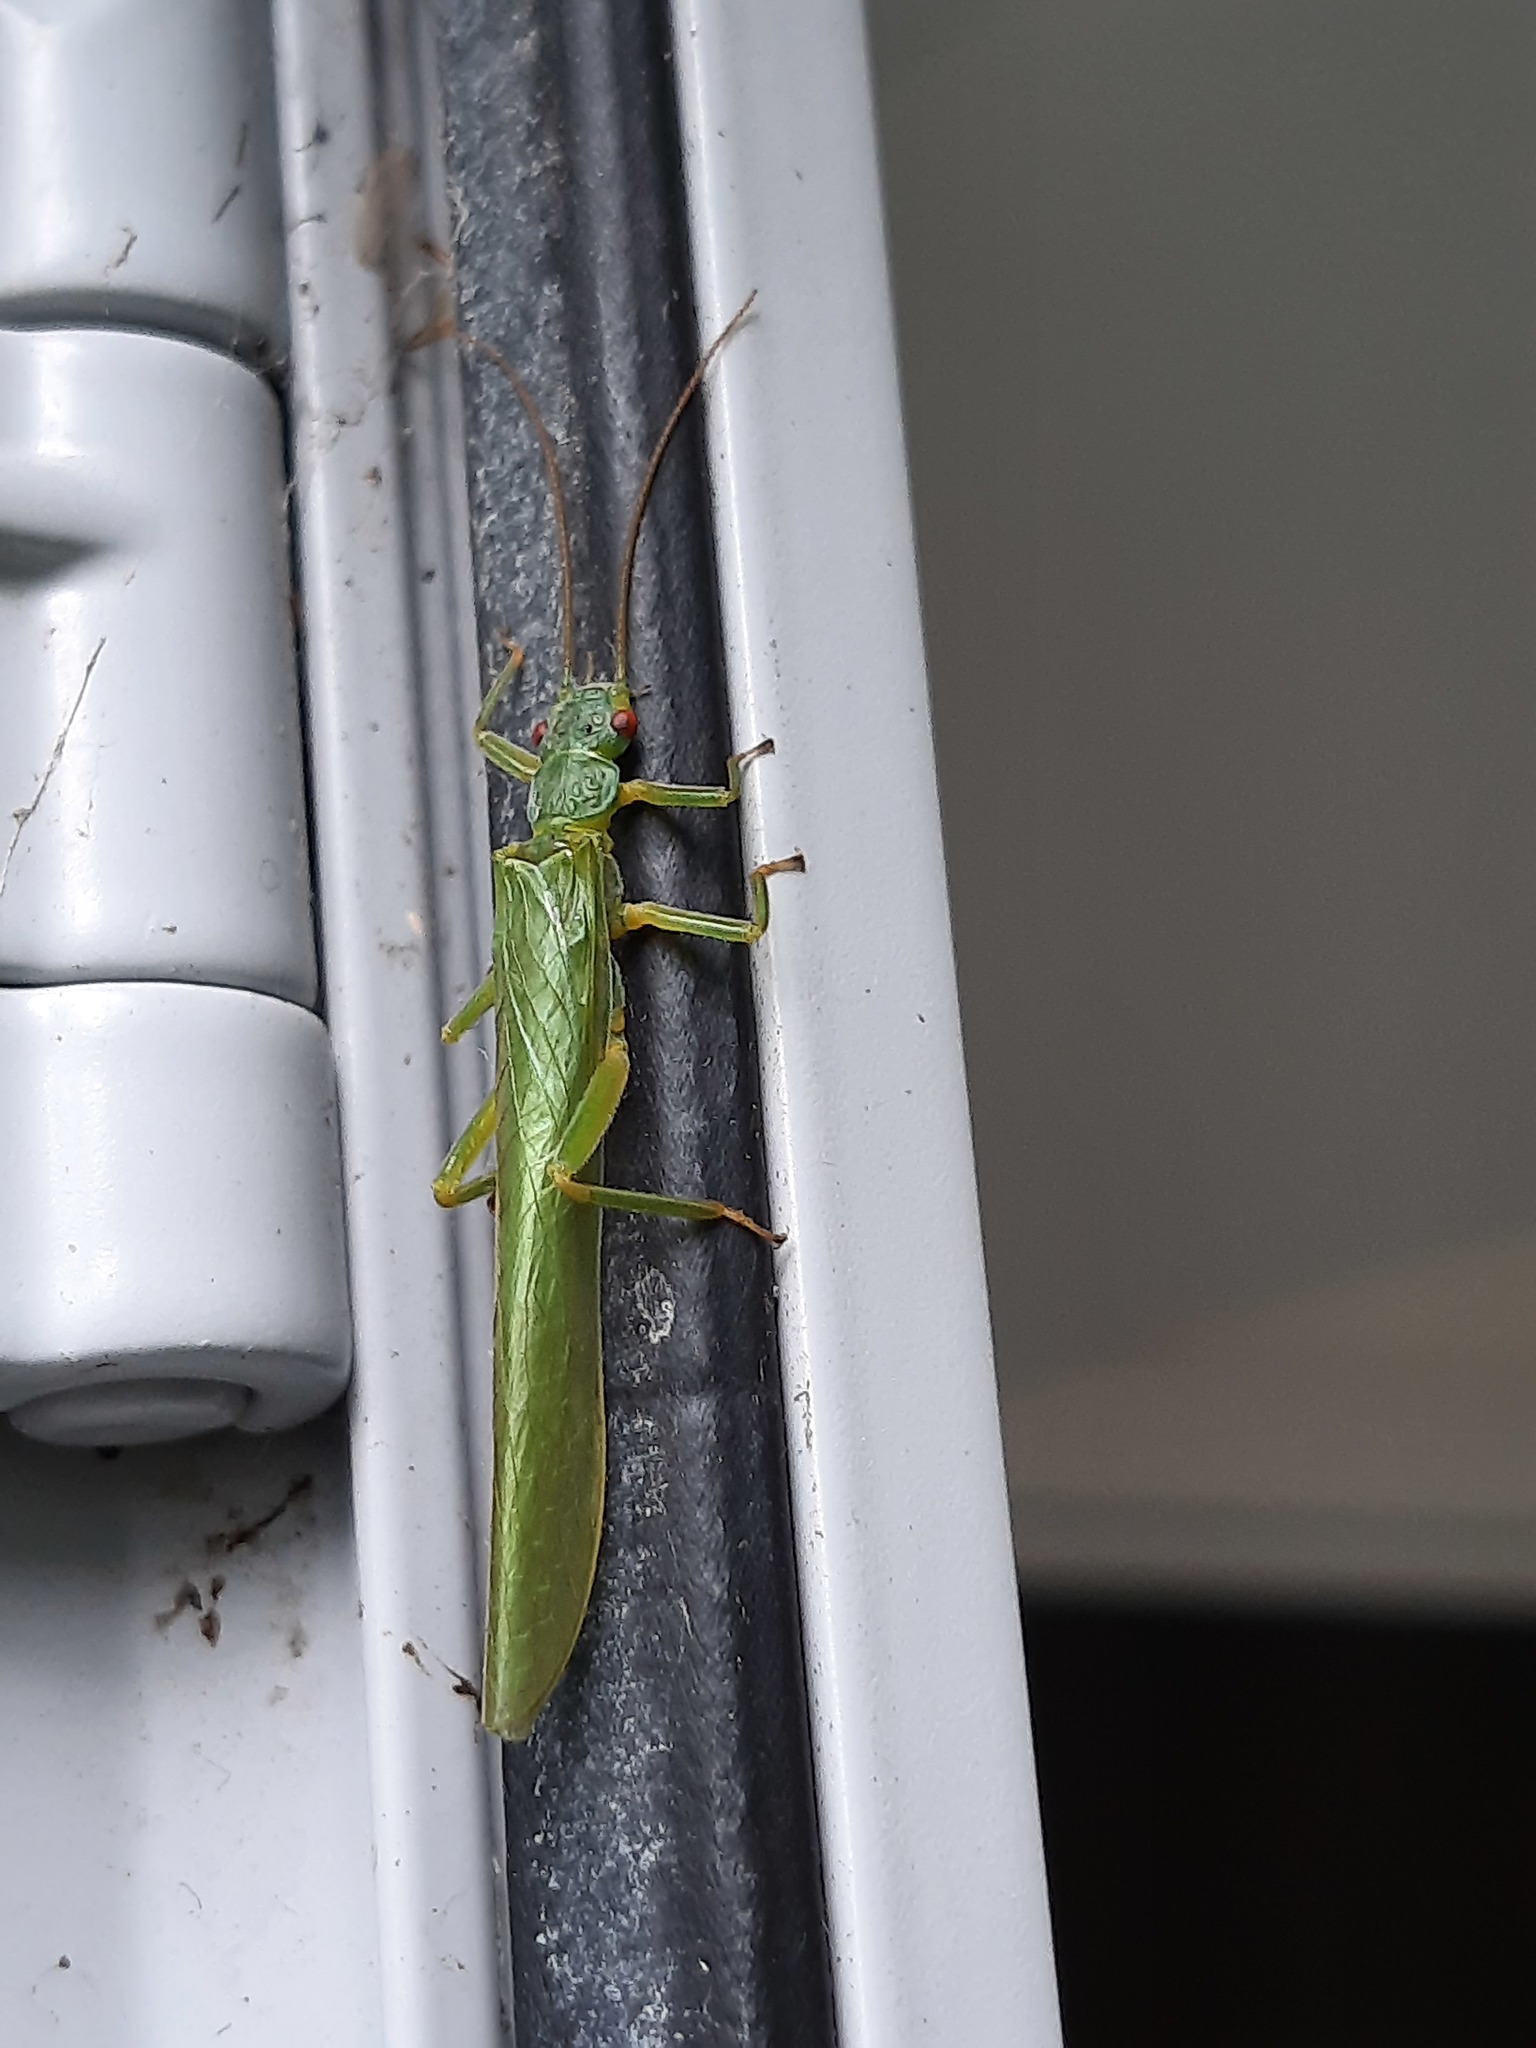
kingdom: Animalia
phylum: Arthropoda
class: Insecta
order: Plecoptera
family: Eustheniidae
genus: Stenoperla
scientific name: Stenoperla prasina
